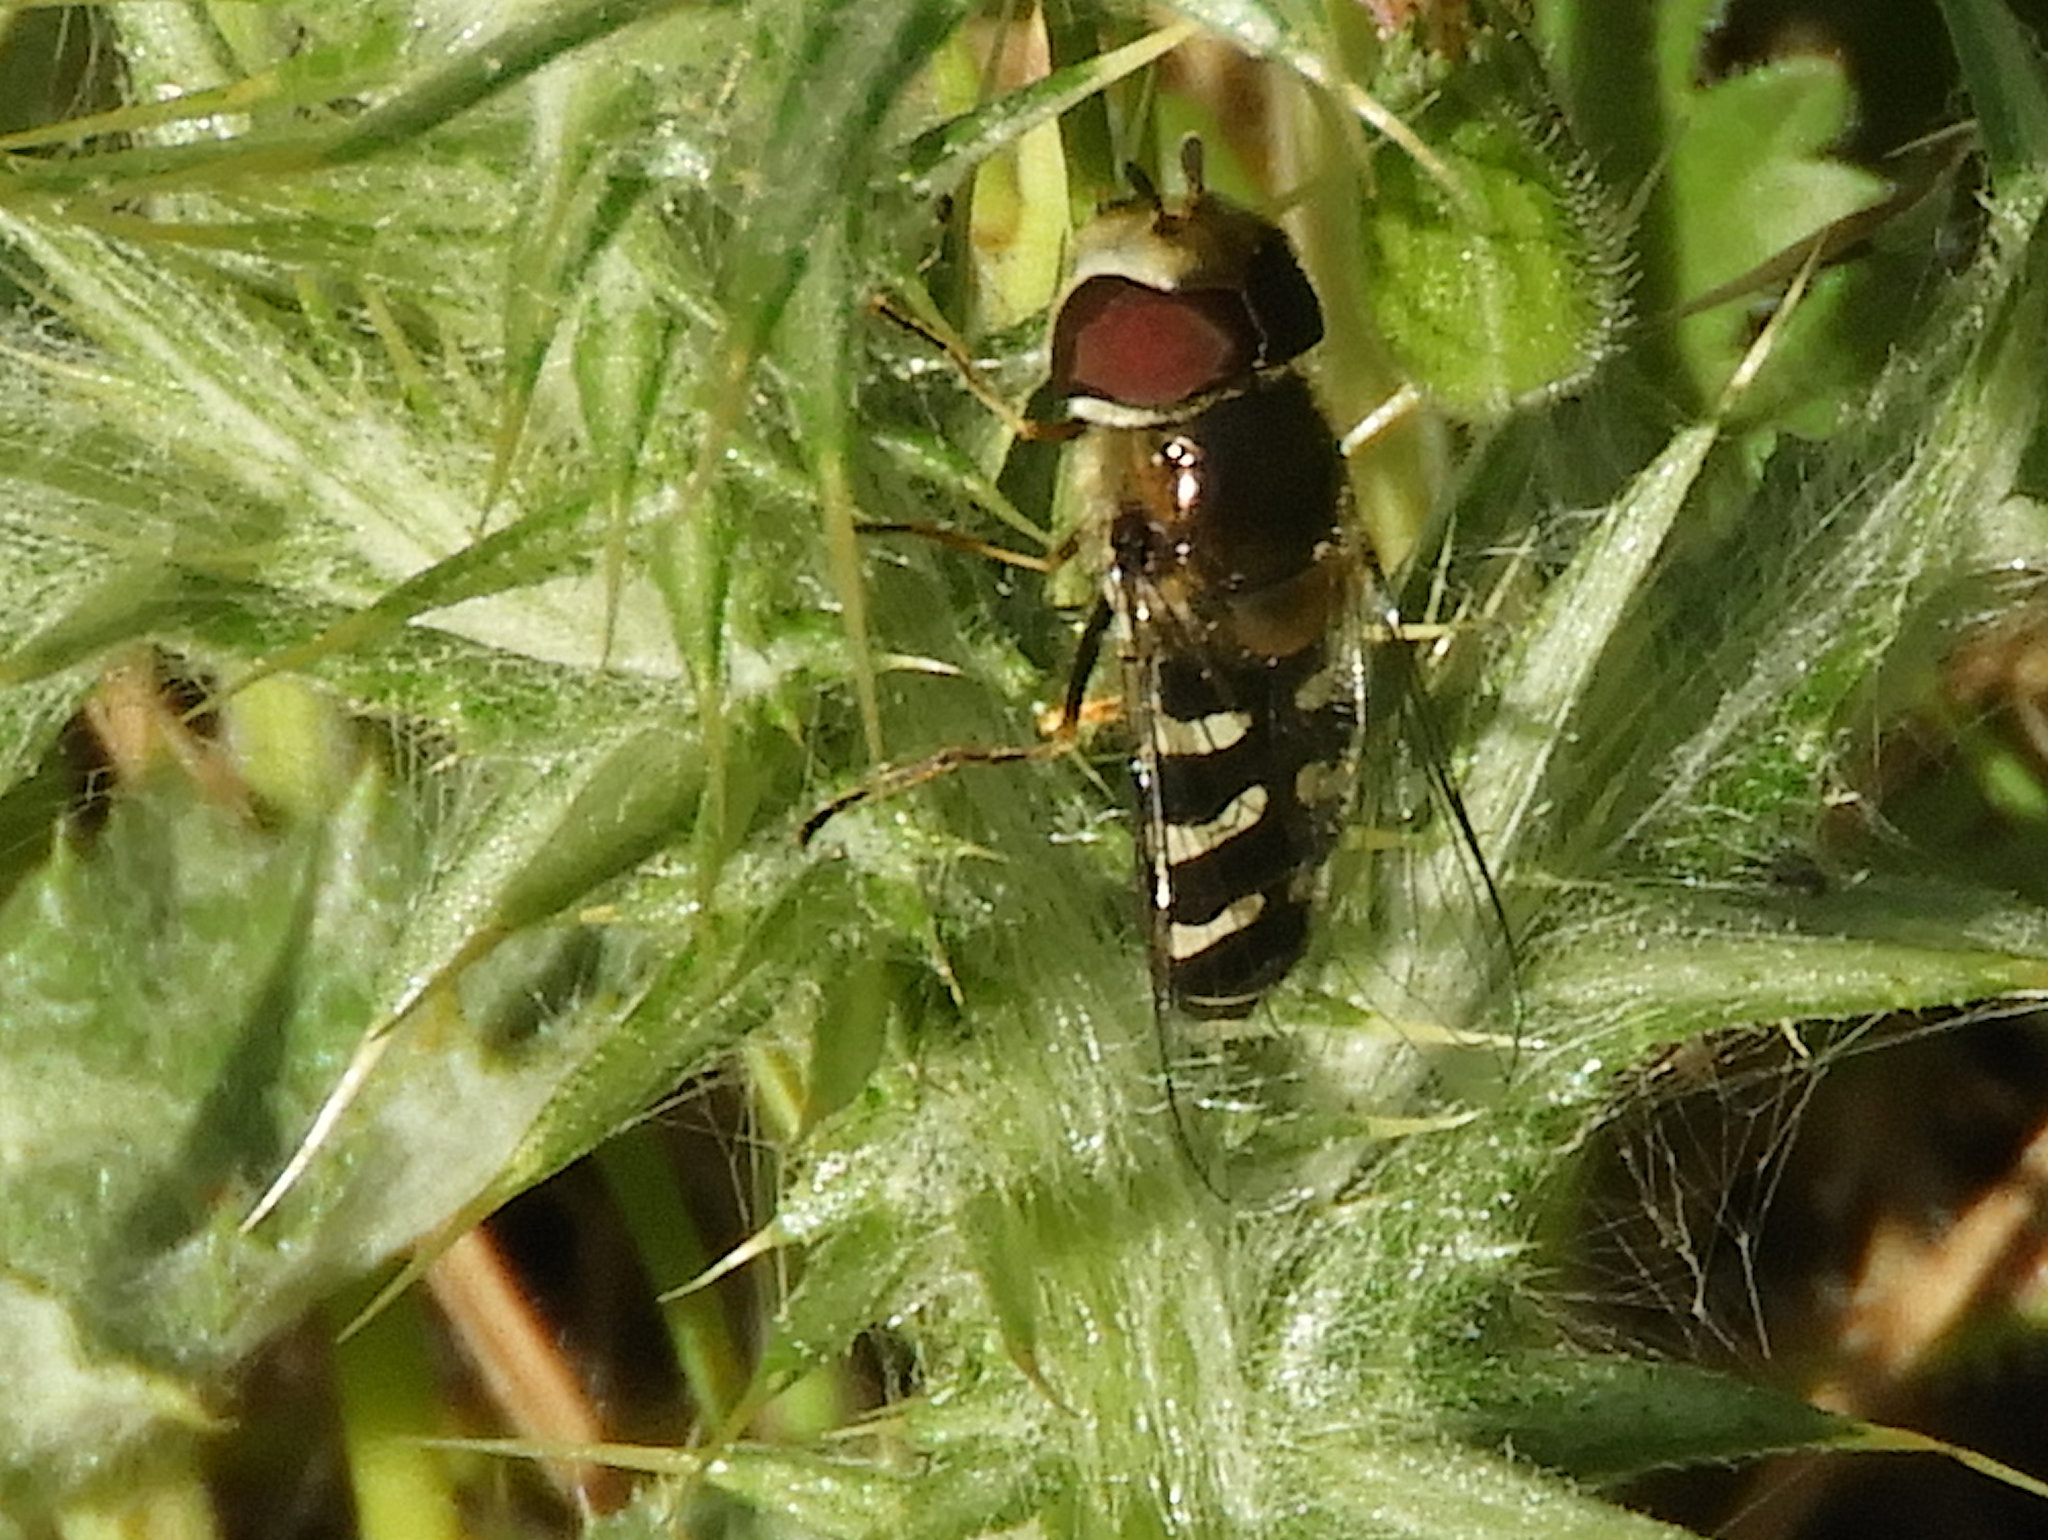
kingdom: Animalia
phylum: Arthropoda
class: Insecta
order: Diptera
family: Syrphidae
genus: Scaeva
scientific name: Scaeva affinis
